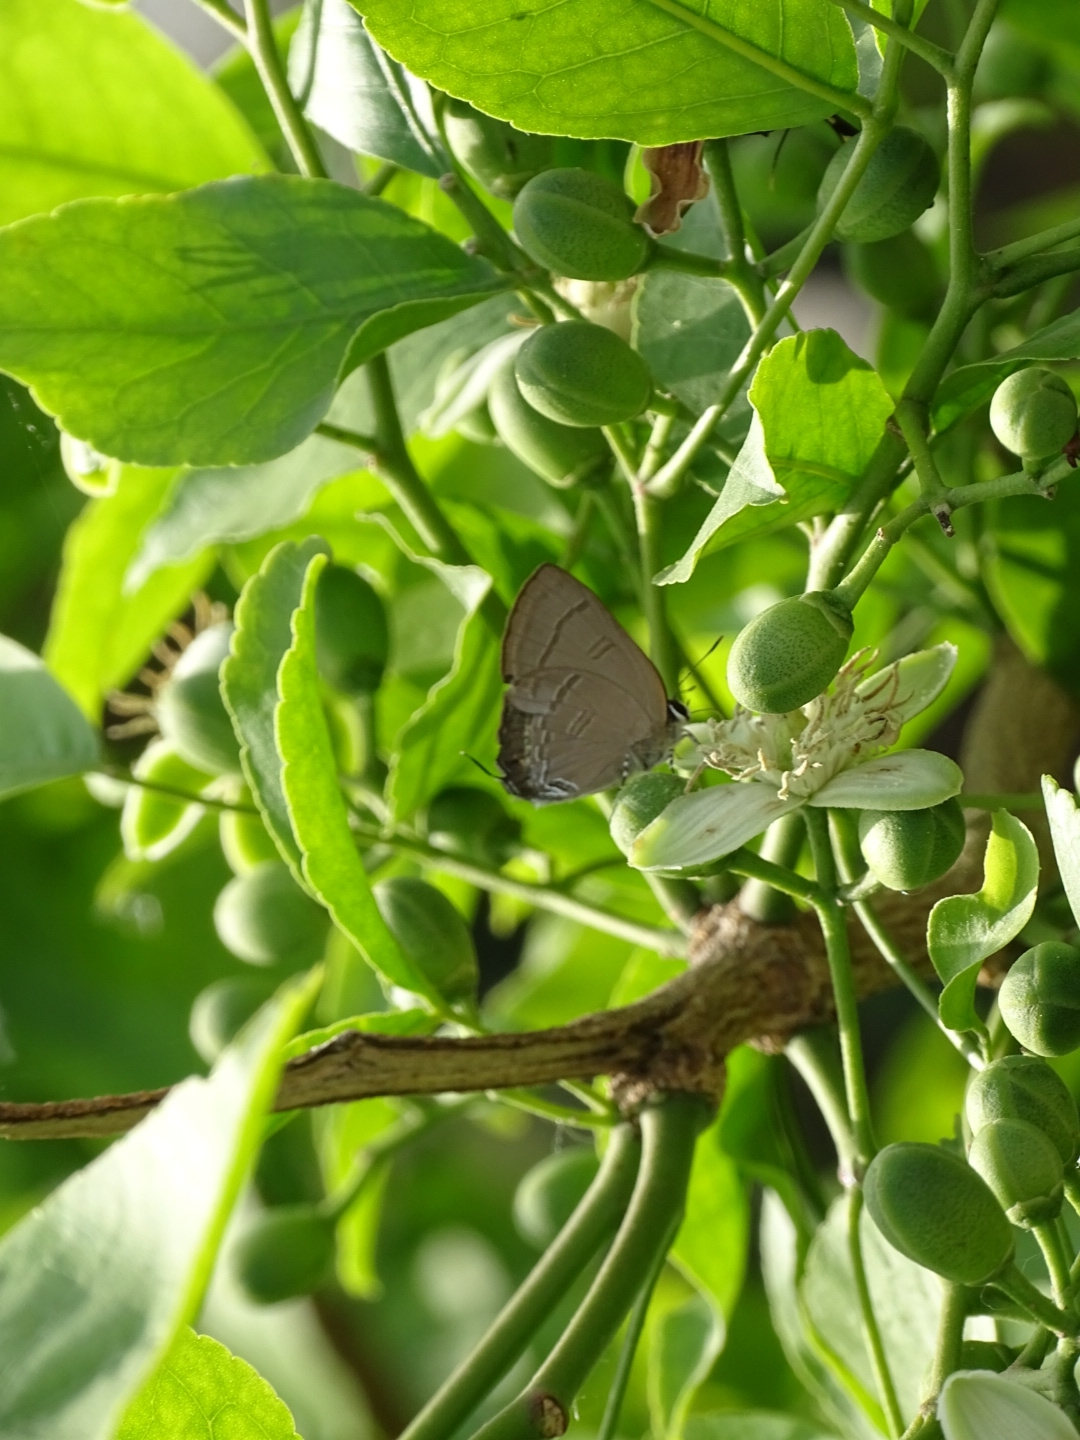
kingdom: Animalia
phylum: Arthropoda
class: Insecta
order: Lepidoptera
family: Lycaenidae
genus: Rapala
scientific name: Rapala manea
